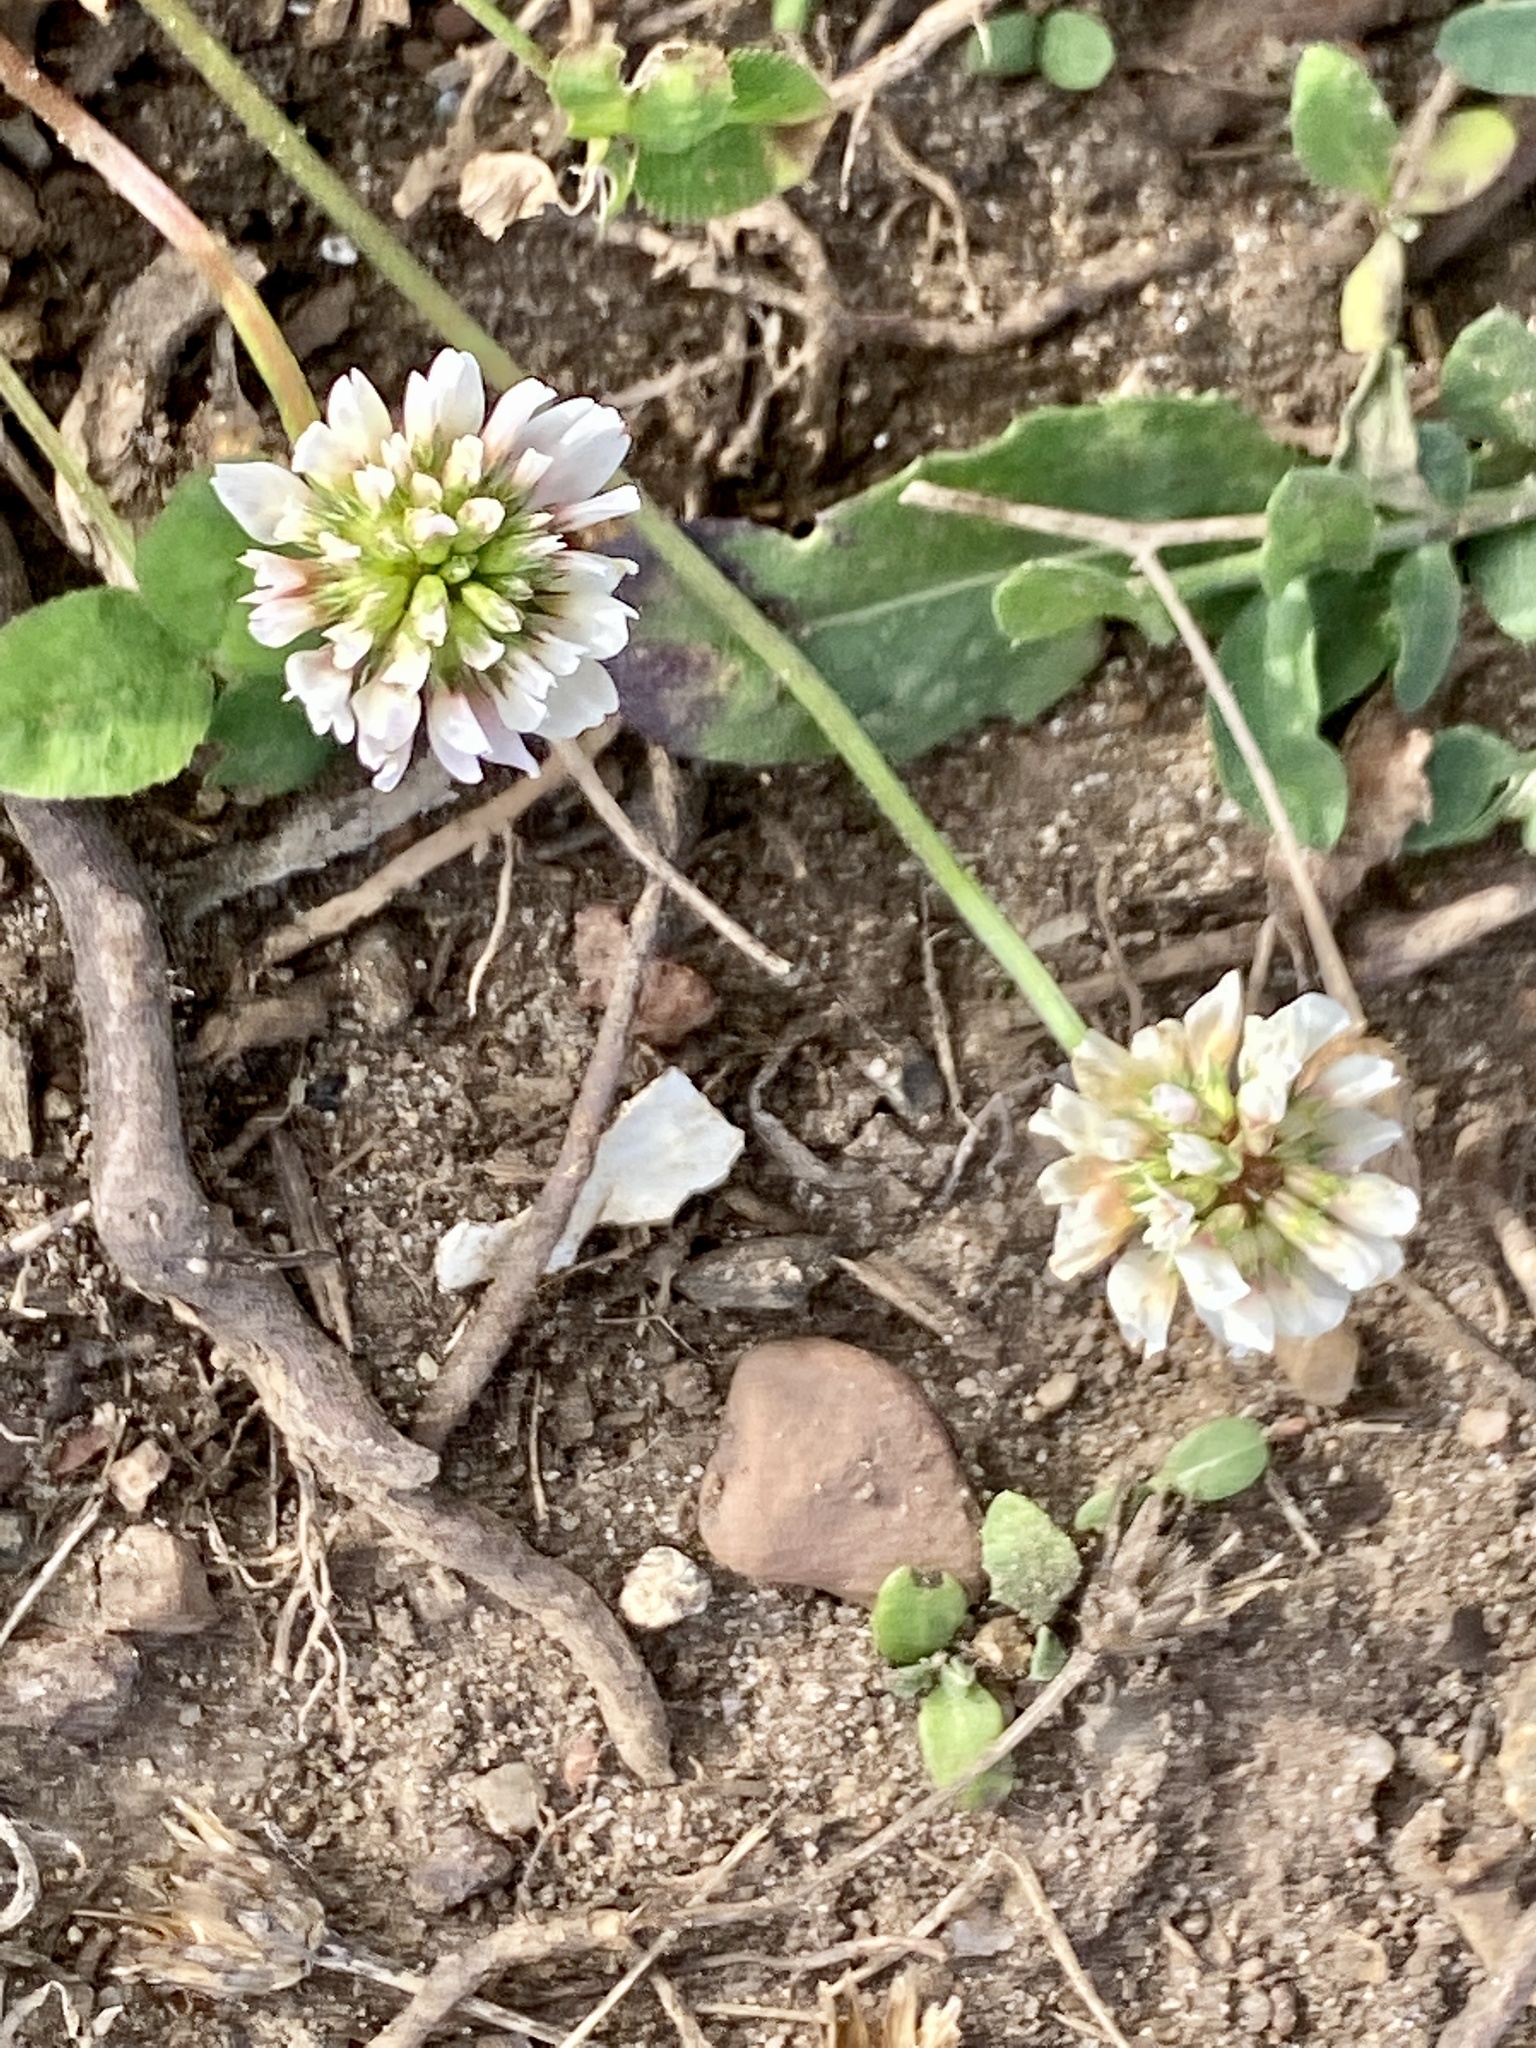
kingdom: Plantae
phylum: Tracheophyta
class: Magnoliopsida
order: Fabales
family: Fabaceae
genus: Trifolium
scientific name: Trifolium repens
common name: White clover
